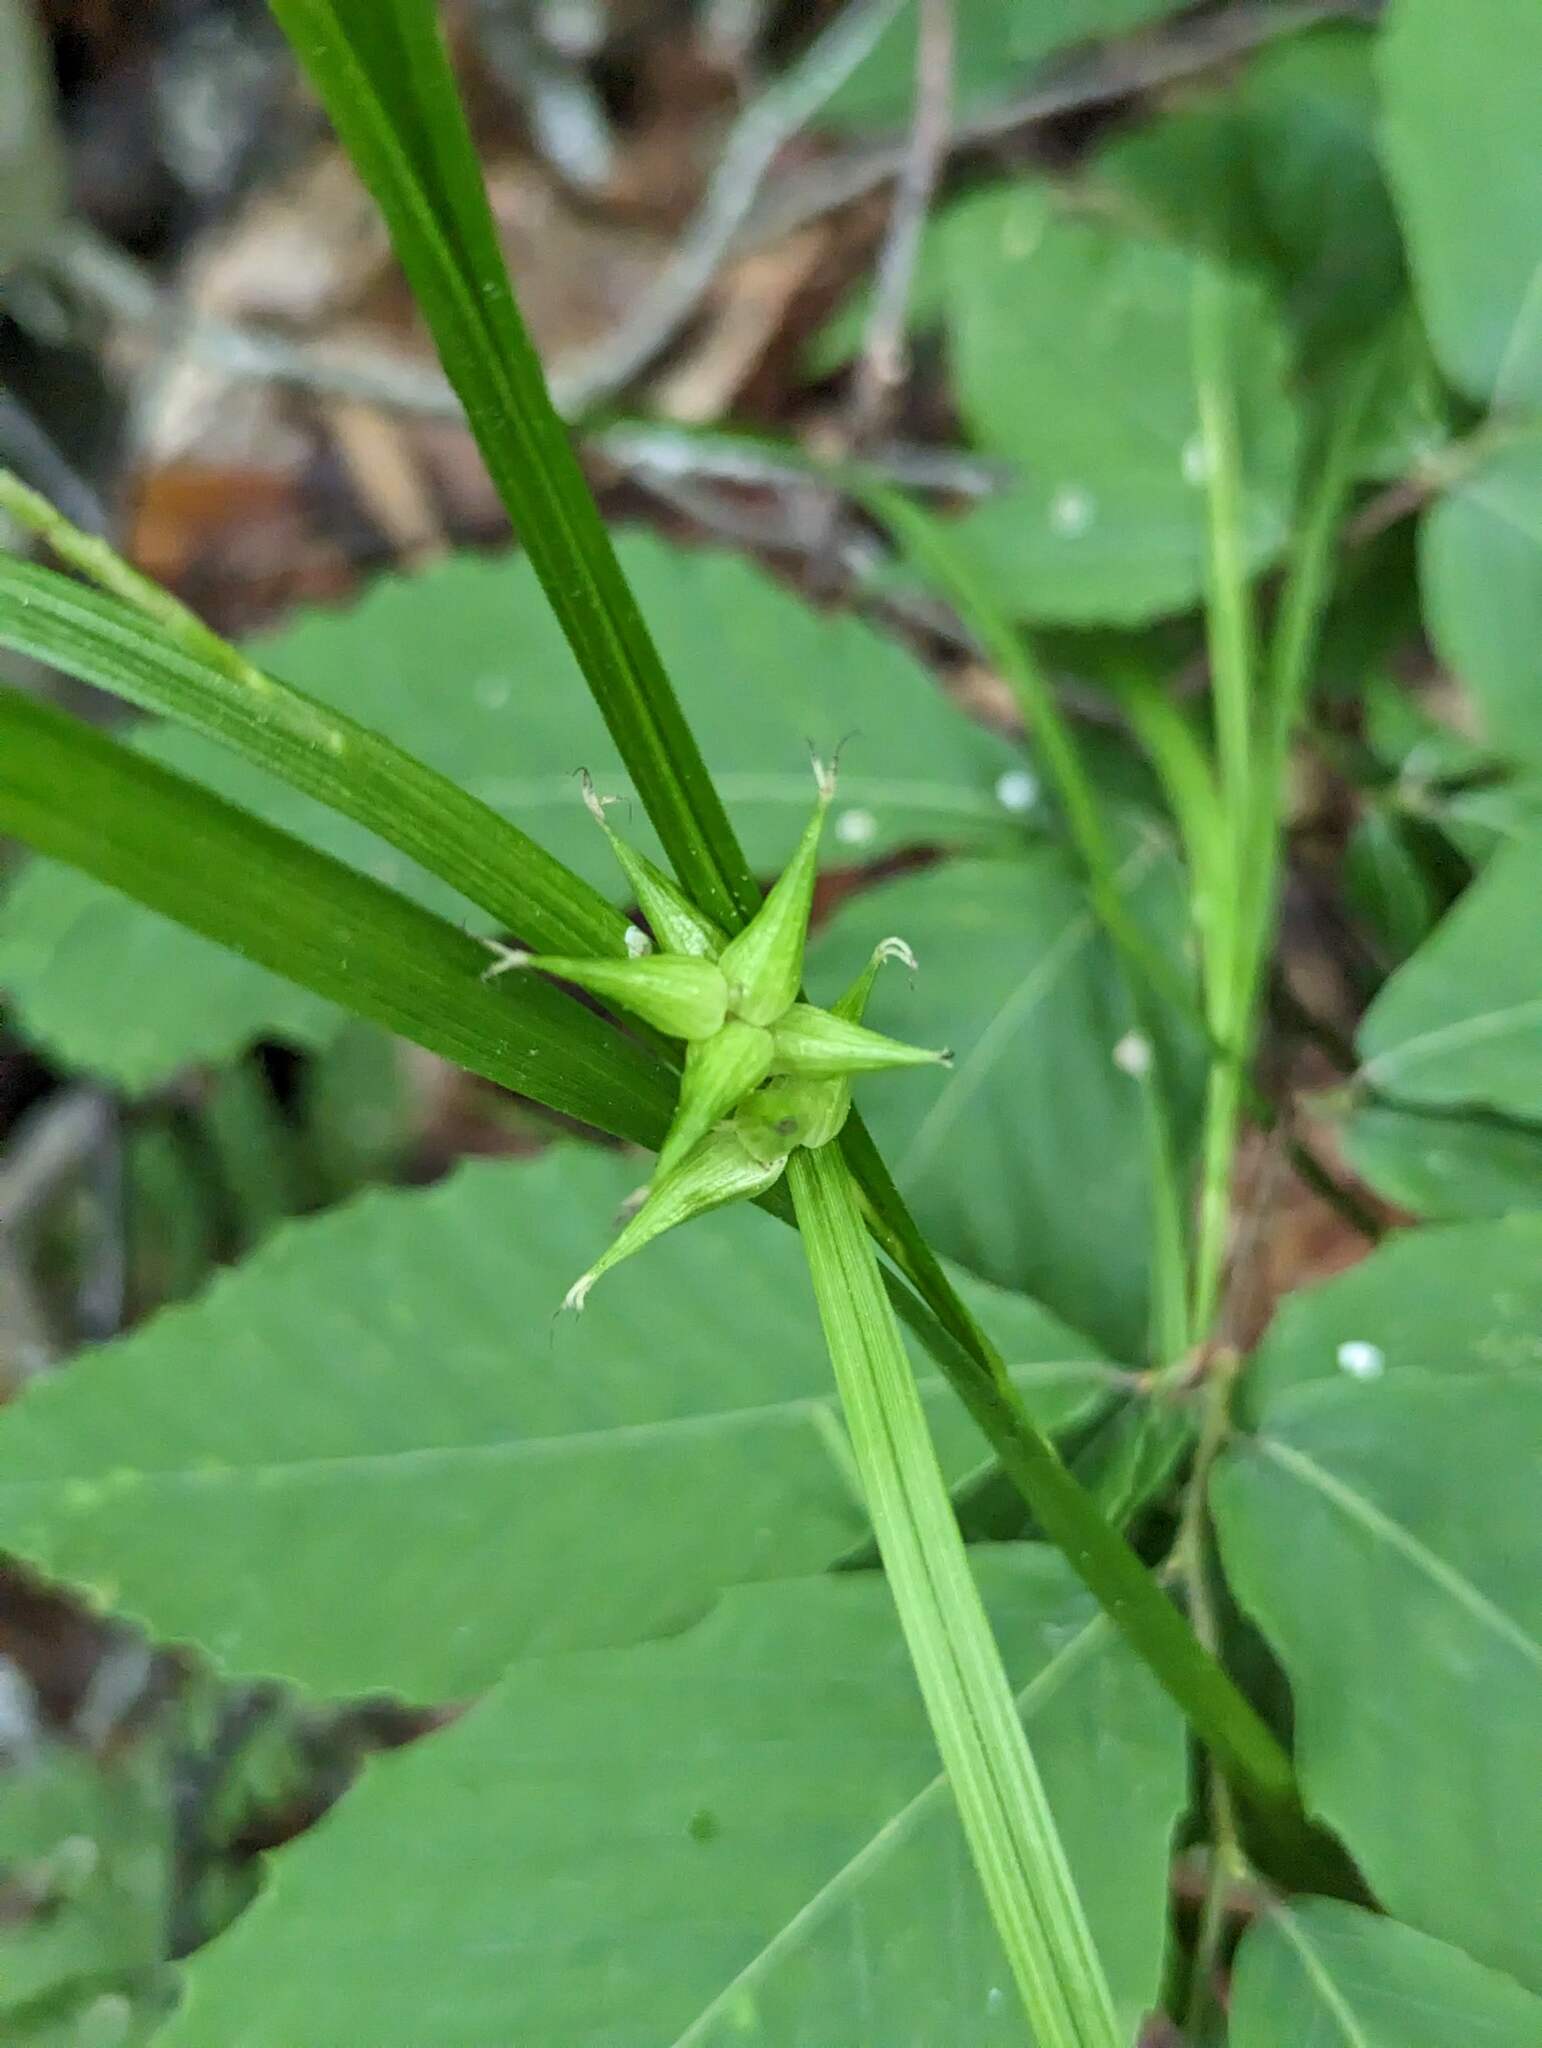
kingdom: Plantae
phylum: Tracheophyta
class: Liliopsida
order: Poales
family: Cyperaceae
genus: Carex
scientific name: Carex intumescens
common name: Greater bladder sedge
